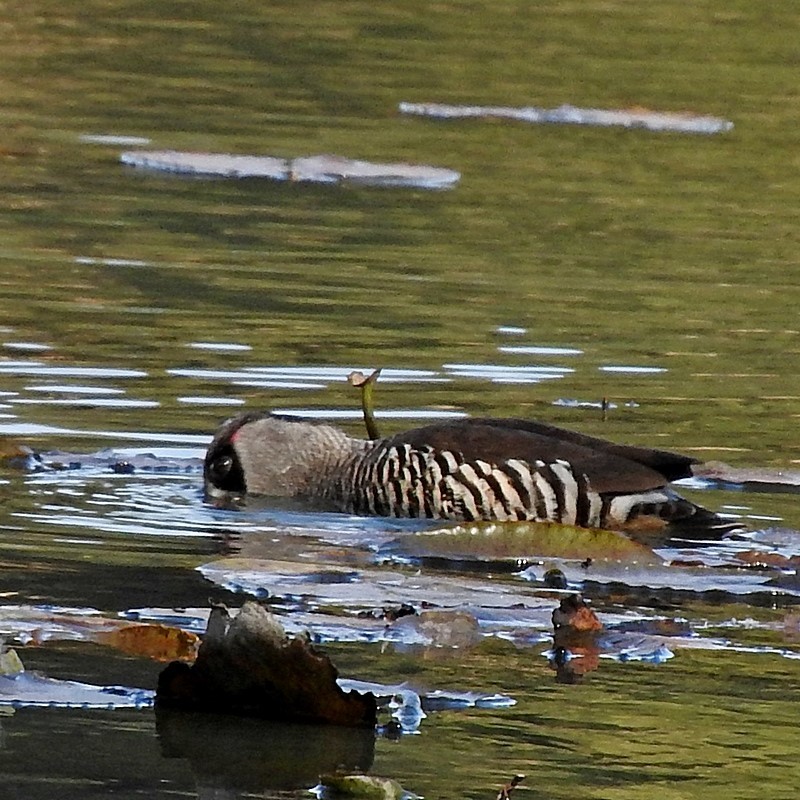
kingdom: Animalia
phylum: Chordata
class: Aves
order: Anseriformes
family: Anatidae
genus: Malacorhynchus
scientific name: Malacorhynchus membranaceus
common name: Pink-eared duck
